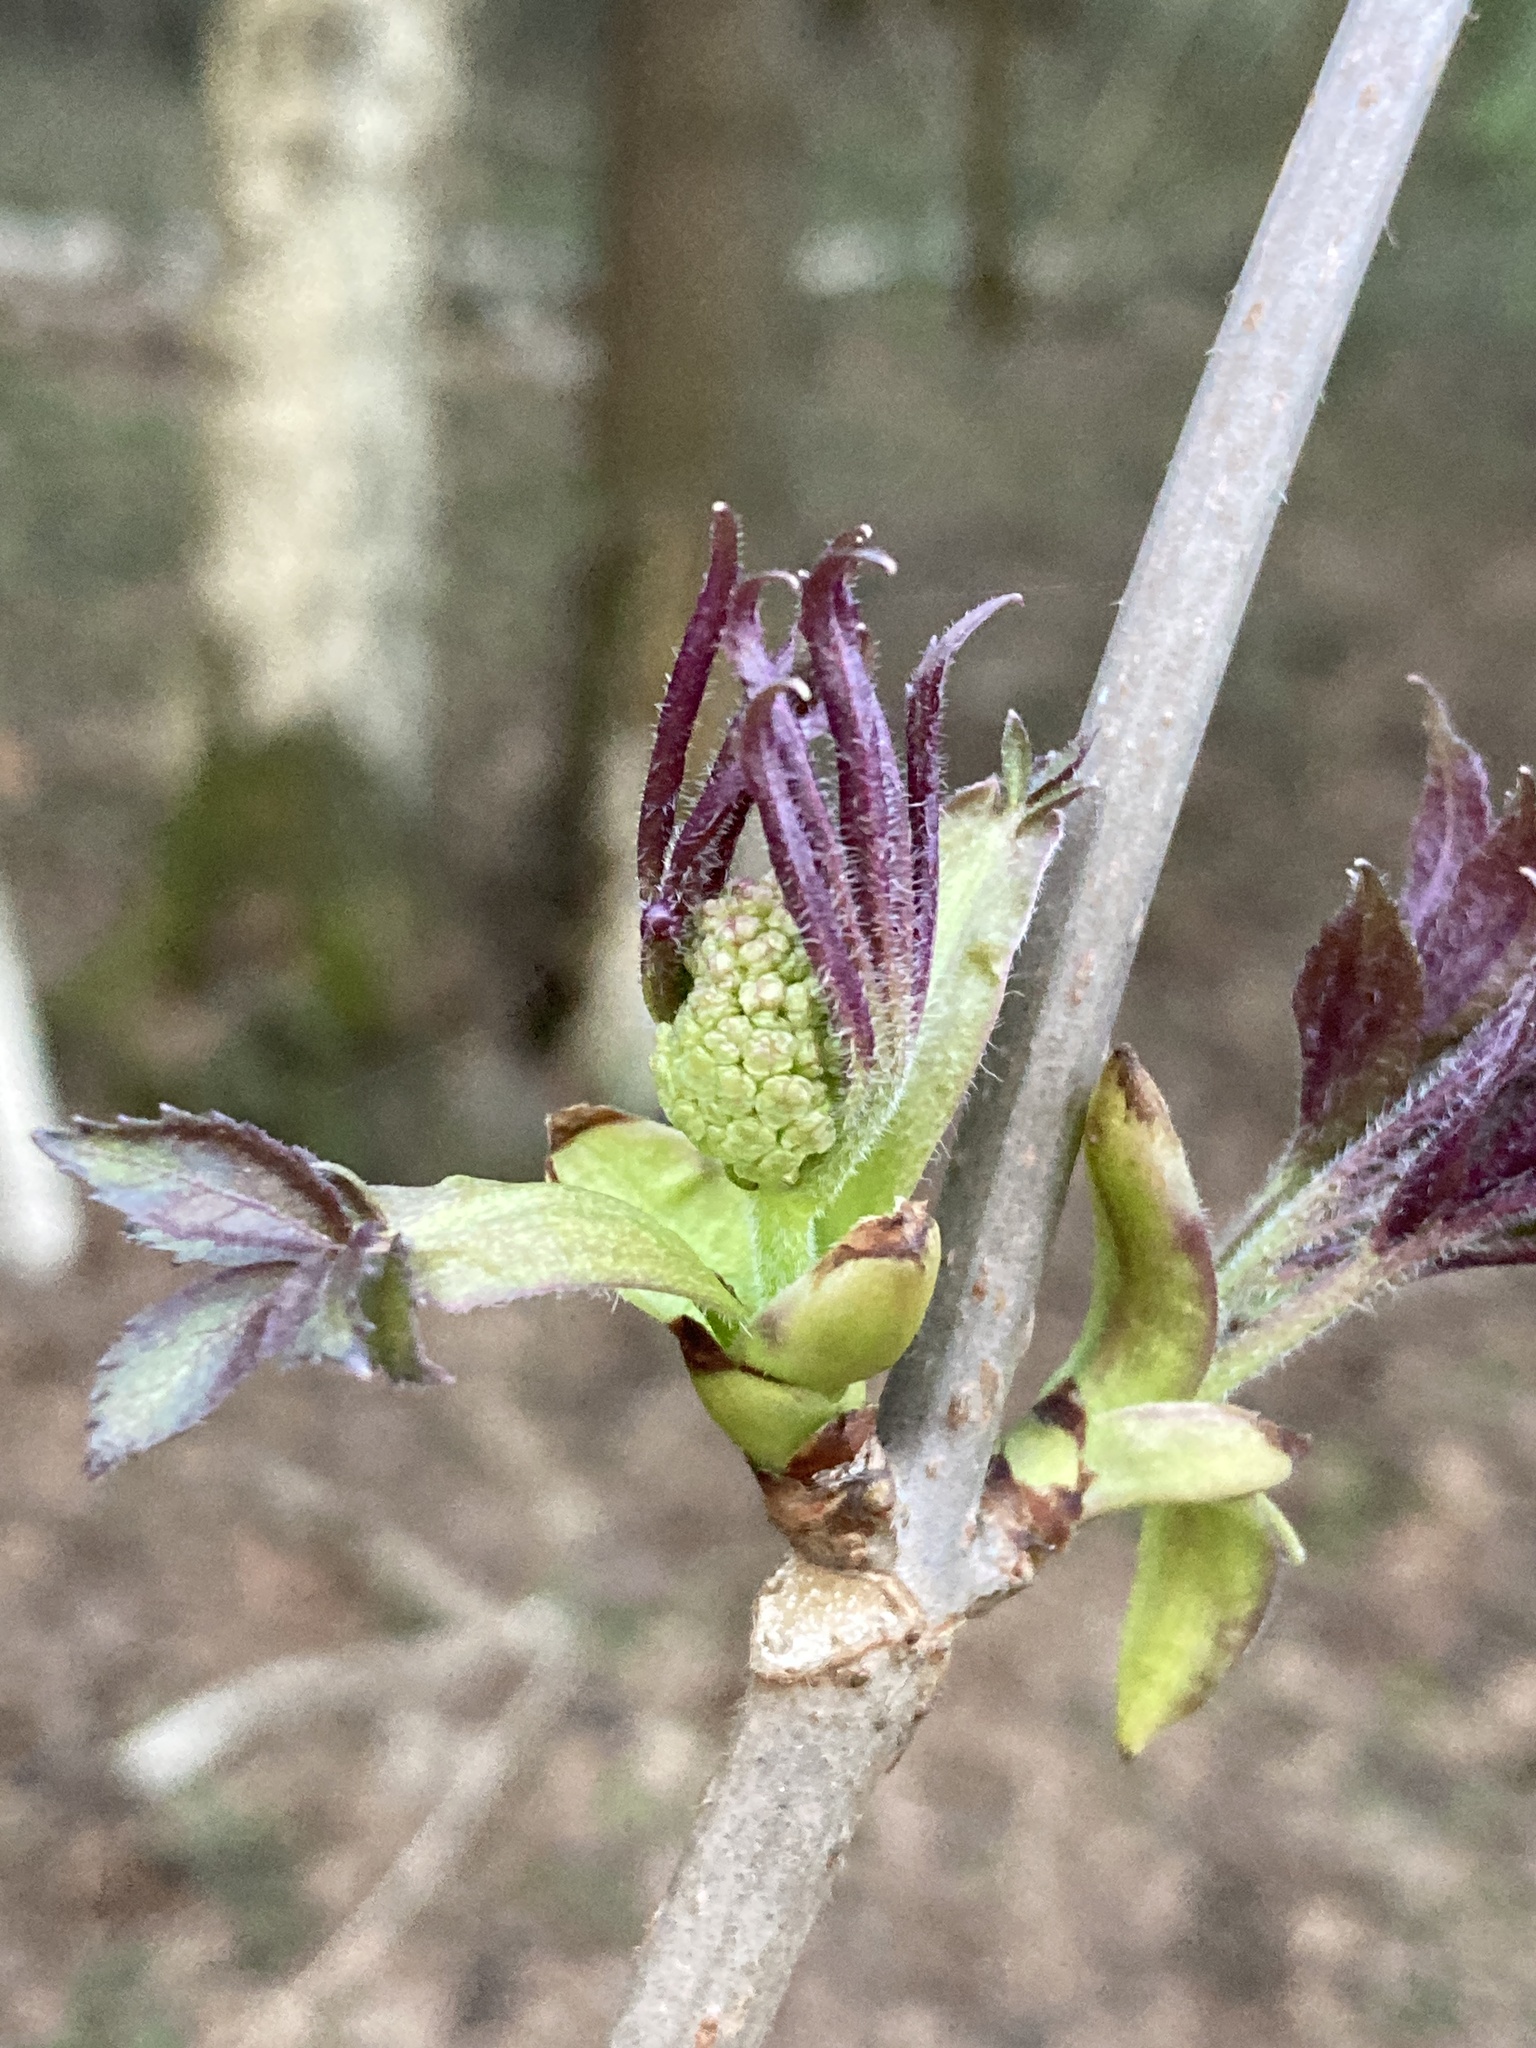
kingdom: Plantae
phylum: Tracheophyta
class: Magnoliopsida
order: Dipsacales
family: Viburnaceae
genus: Sambucus
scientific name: Sambucus racemosa
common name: Red-berried elder
